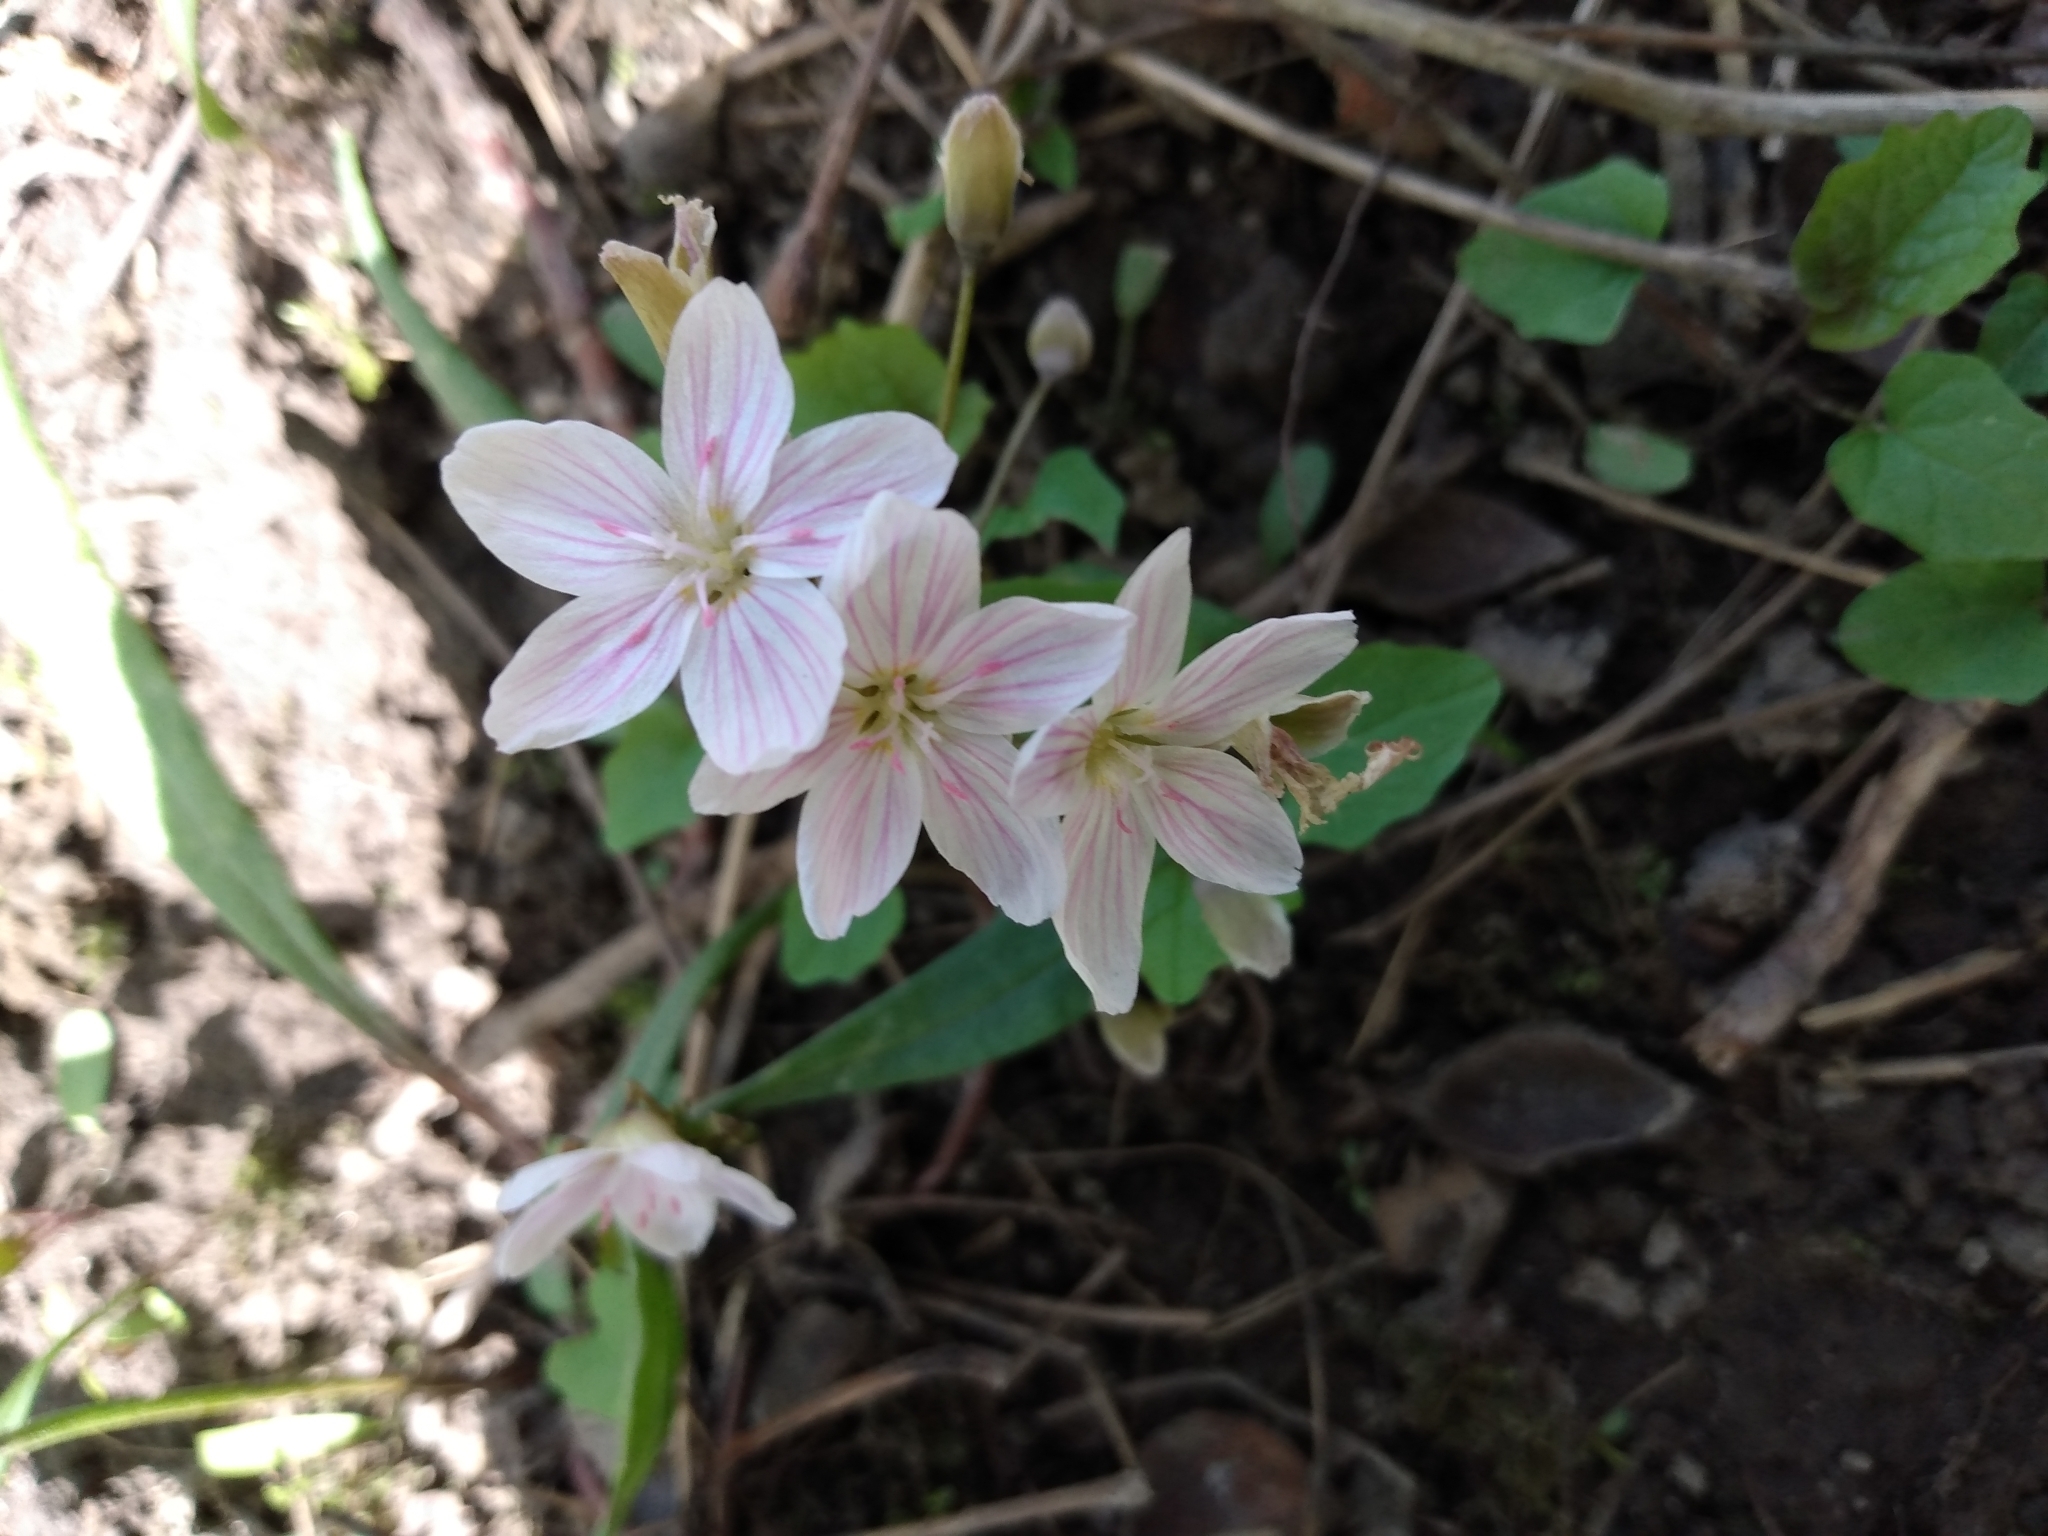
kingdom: Plantae
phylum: Tracheophyta
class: Magnoliopsida
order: Caryophyllales
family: Montiaceae
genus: Claytonia
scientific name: Claytonia caroliniana
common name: Carolina spring beauty
